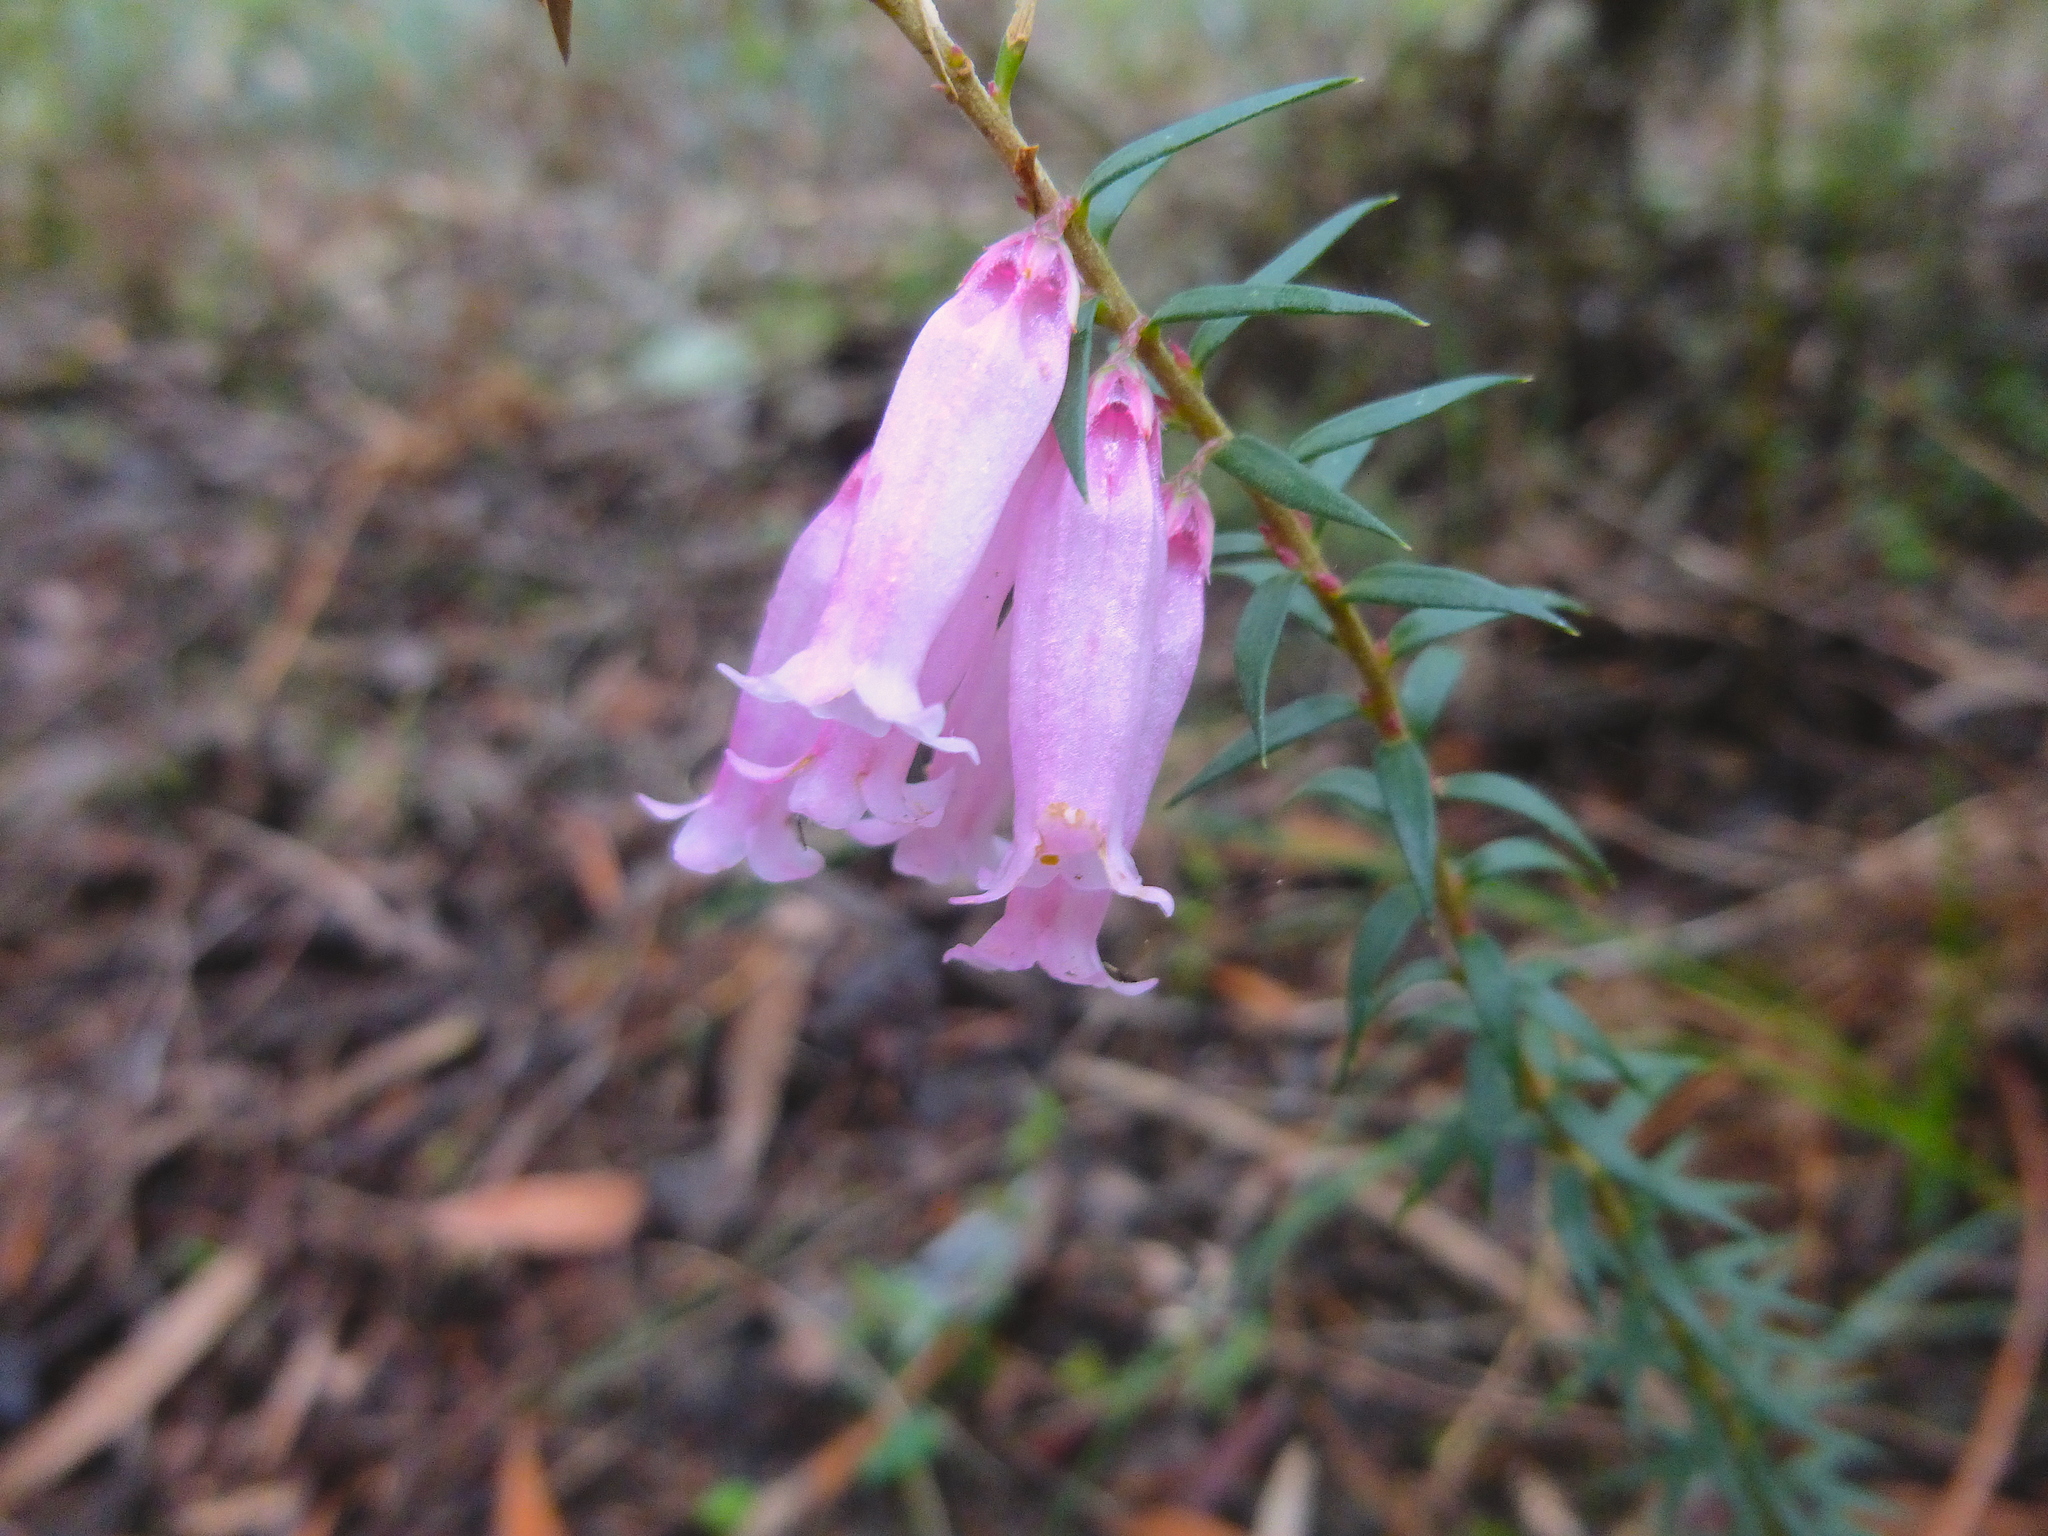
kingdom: Plantae
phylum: Tracheophyta
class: Magnoliopsida
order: Ericales
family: Ericaceae
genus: Epacris
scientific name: Epacris impressa
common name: Common-heath
